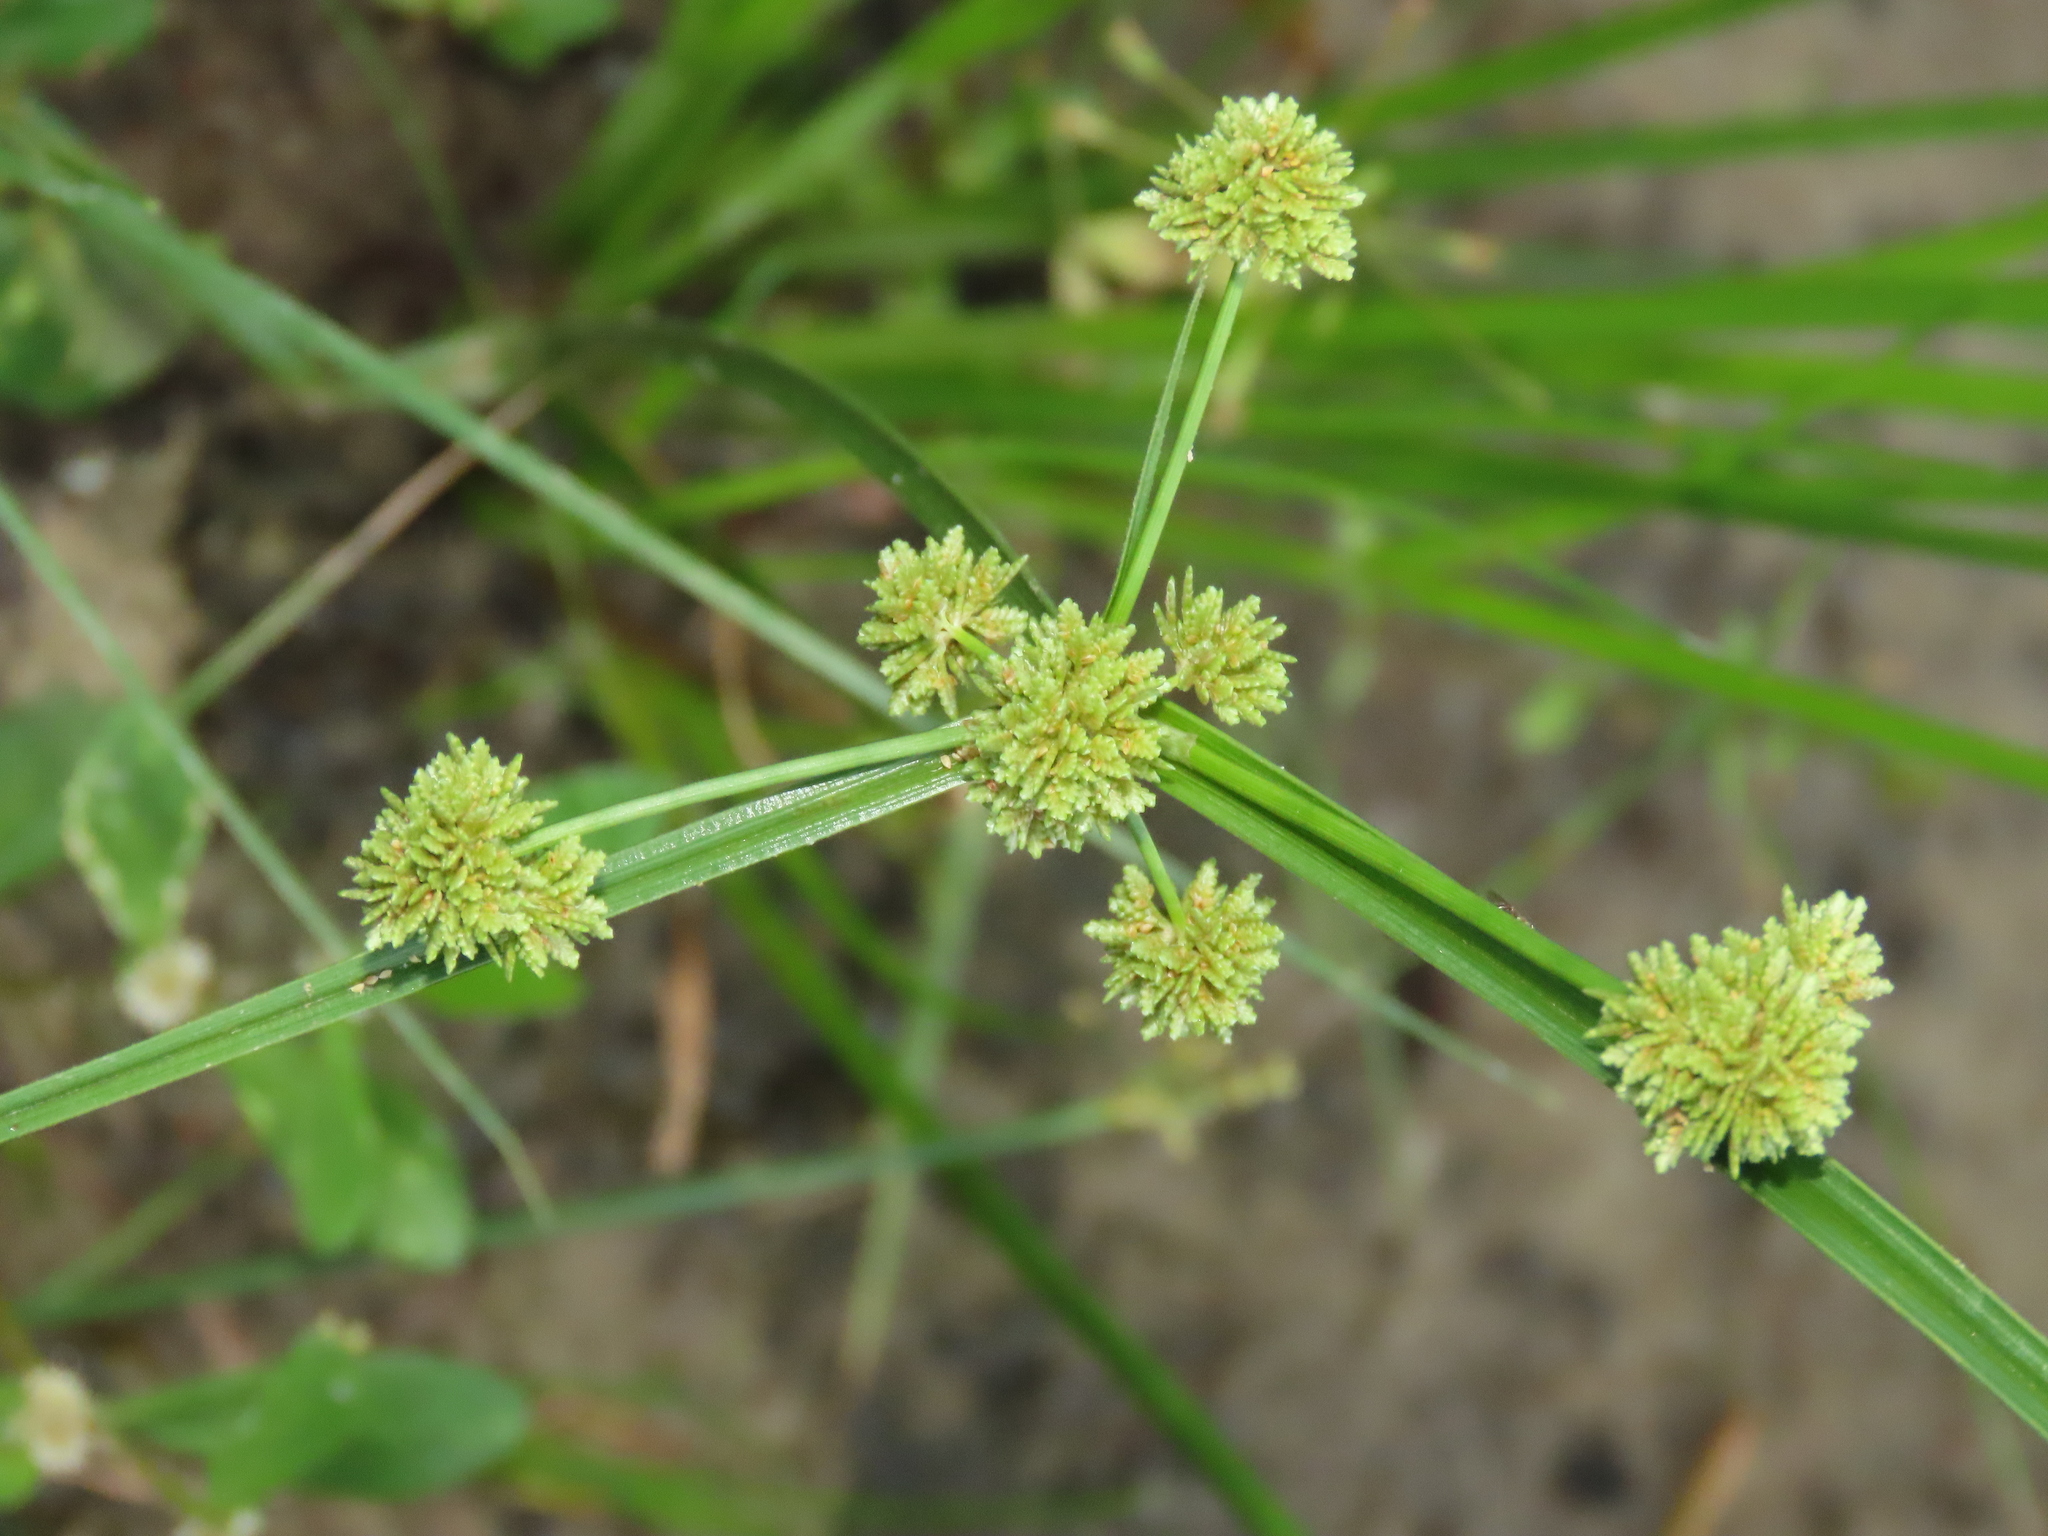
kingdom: Plantae
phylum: Tracheophyta
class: Liliopsida
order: Poales
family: Cyperaceae
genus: Cyperus
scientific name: Cyperus difformis
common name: Variable flatsedge
